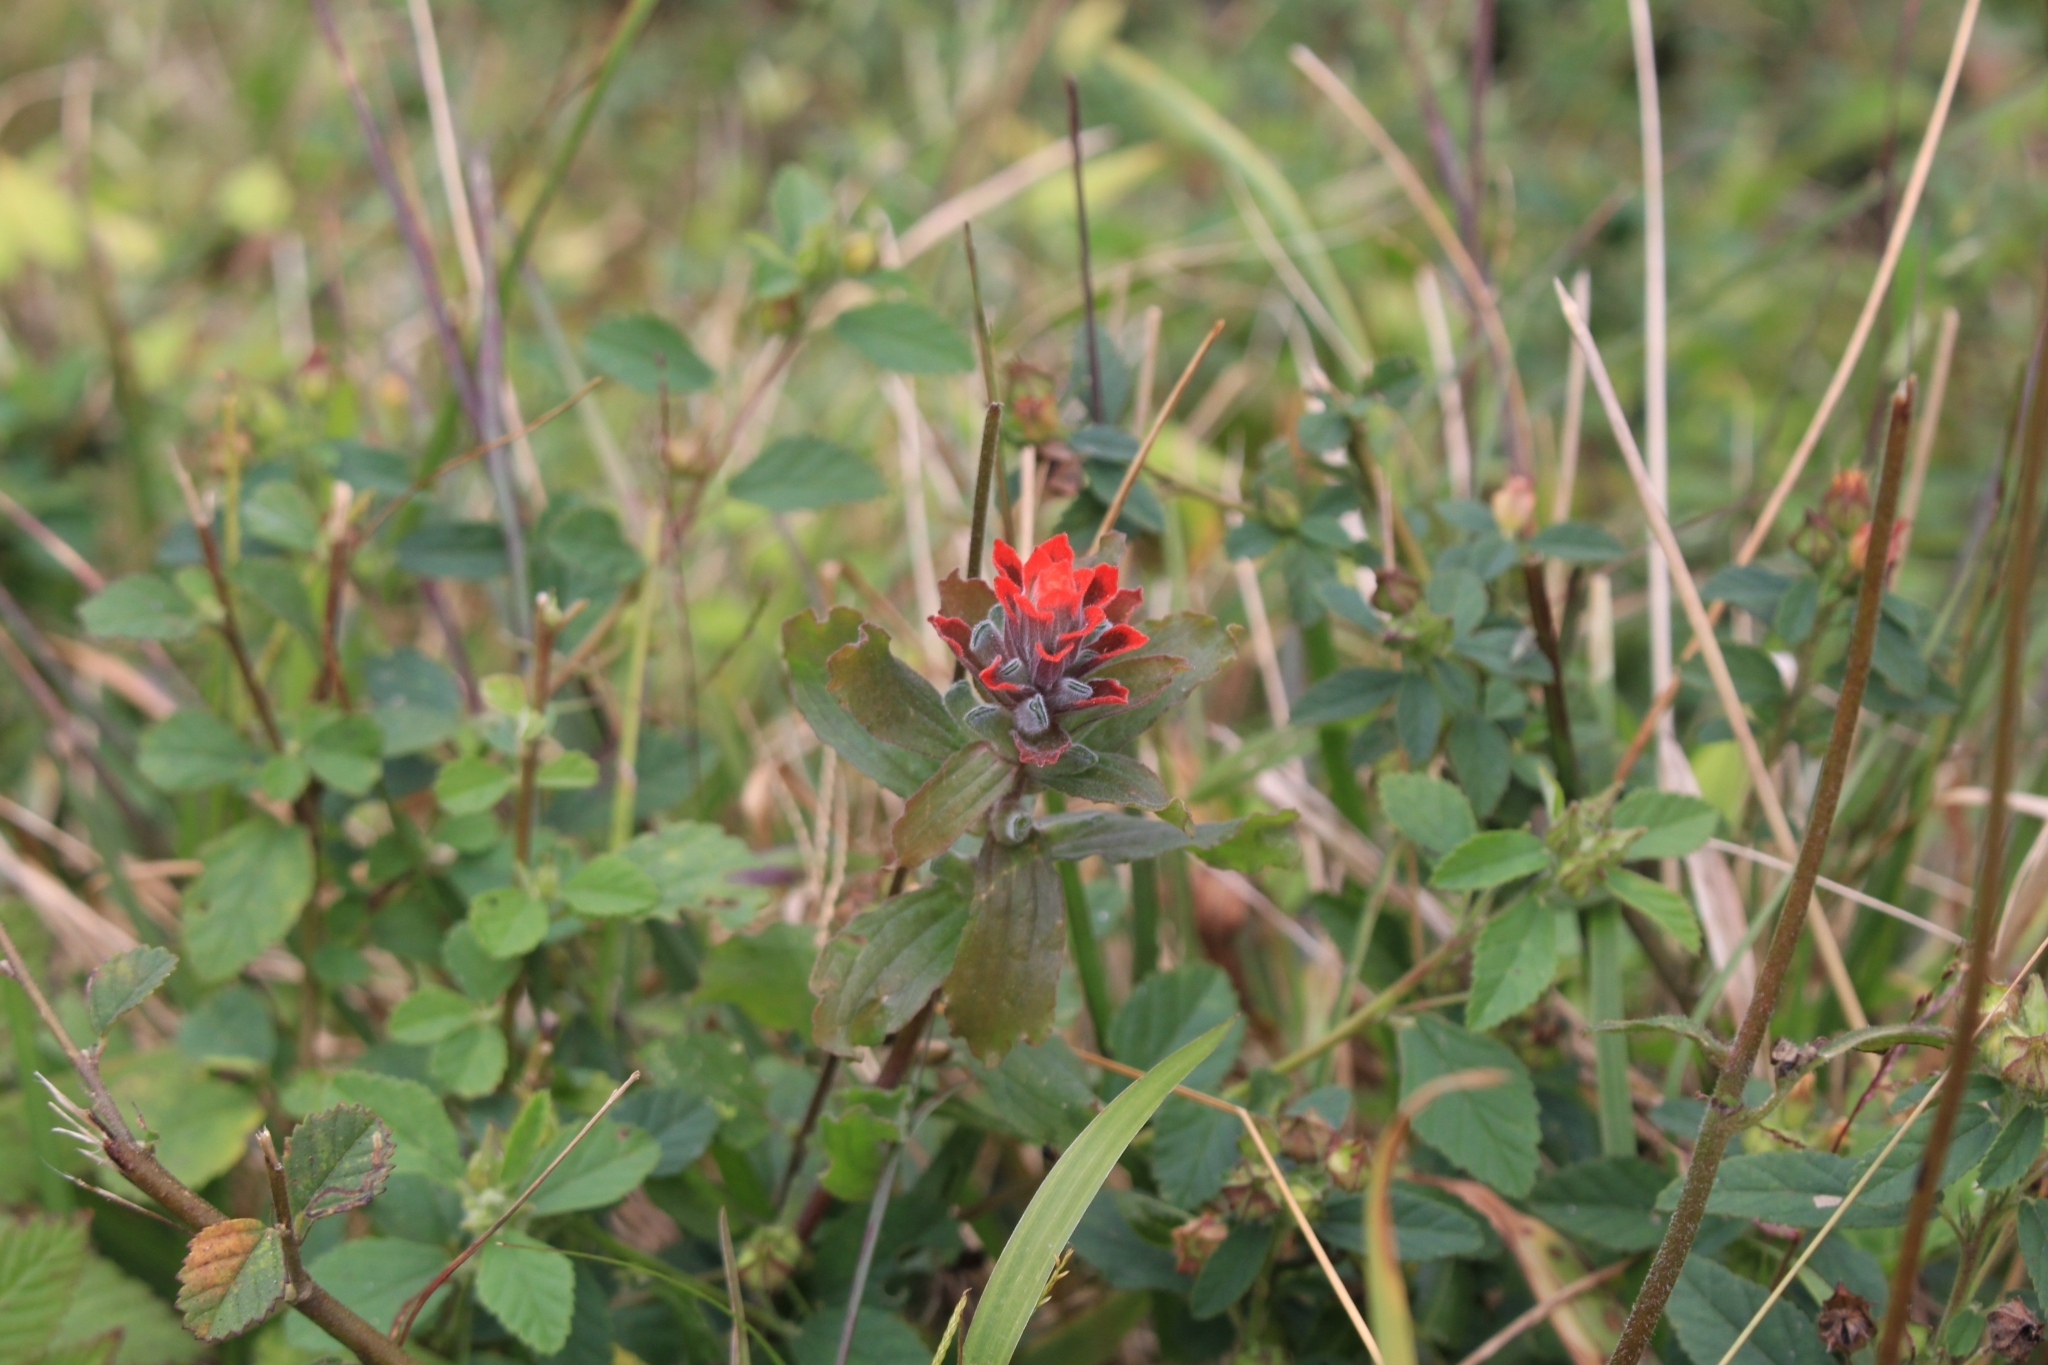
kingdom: Plantae
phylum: Tracheophyta
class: Magnoliopsida
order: Lamiales
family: Orobanchaceae
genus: Castilleja
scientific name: Castilleja arvensis
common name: Indian paintbrush
